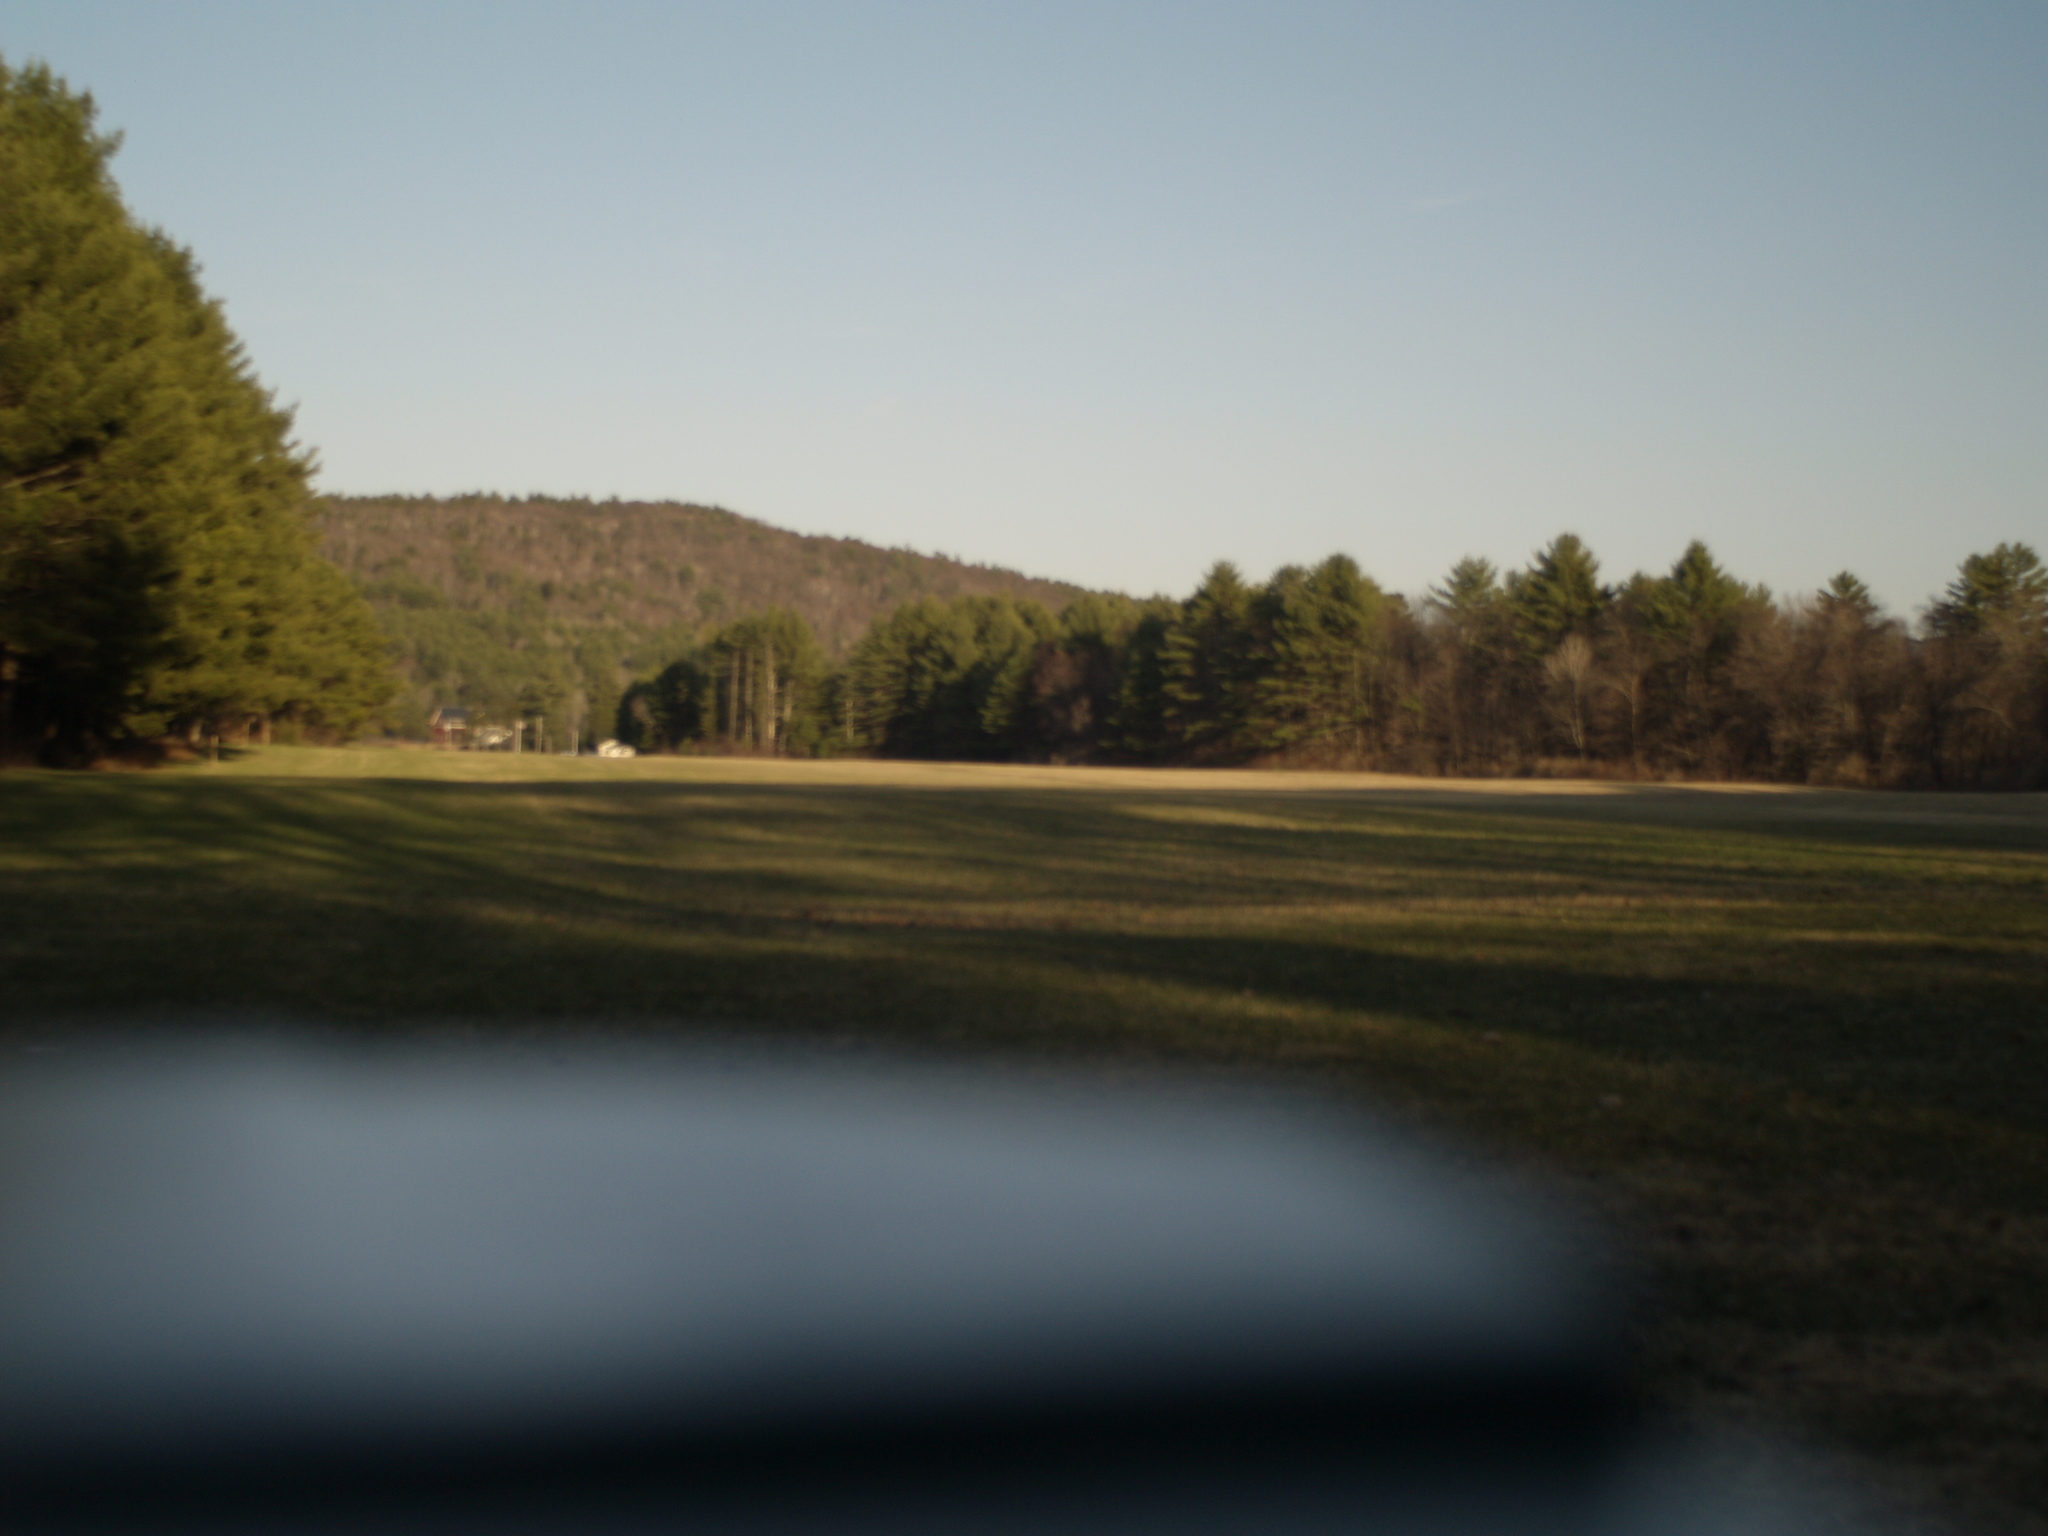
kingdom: Plantae
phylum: Tracheophyta
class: Pinopsida
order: Pinales
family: Pinaceae
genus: Pinus
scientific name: Pinus strobus
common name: Weymouth pine
